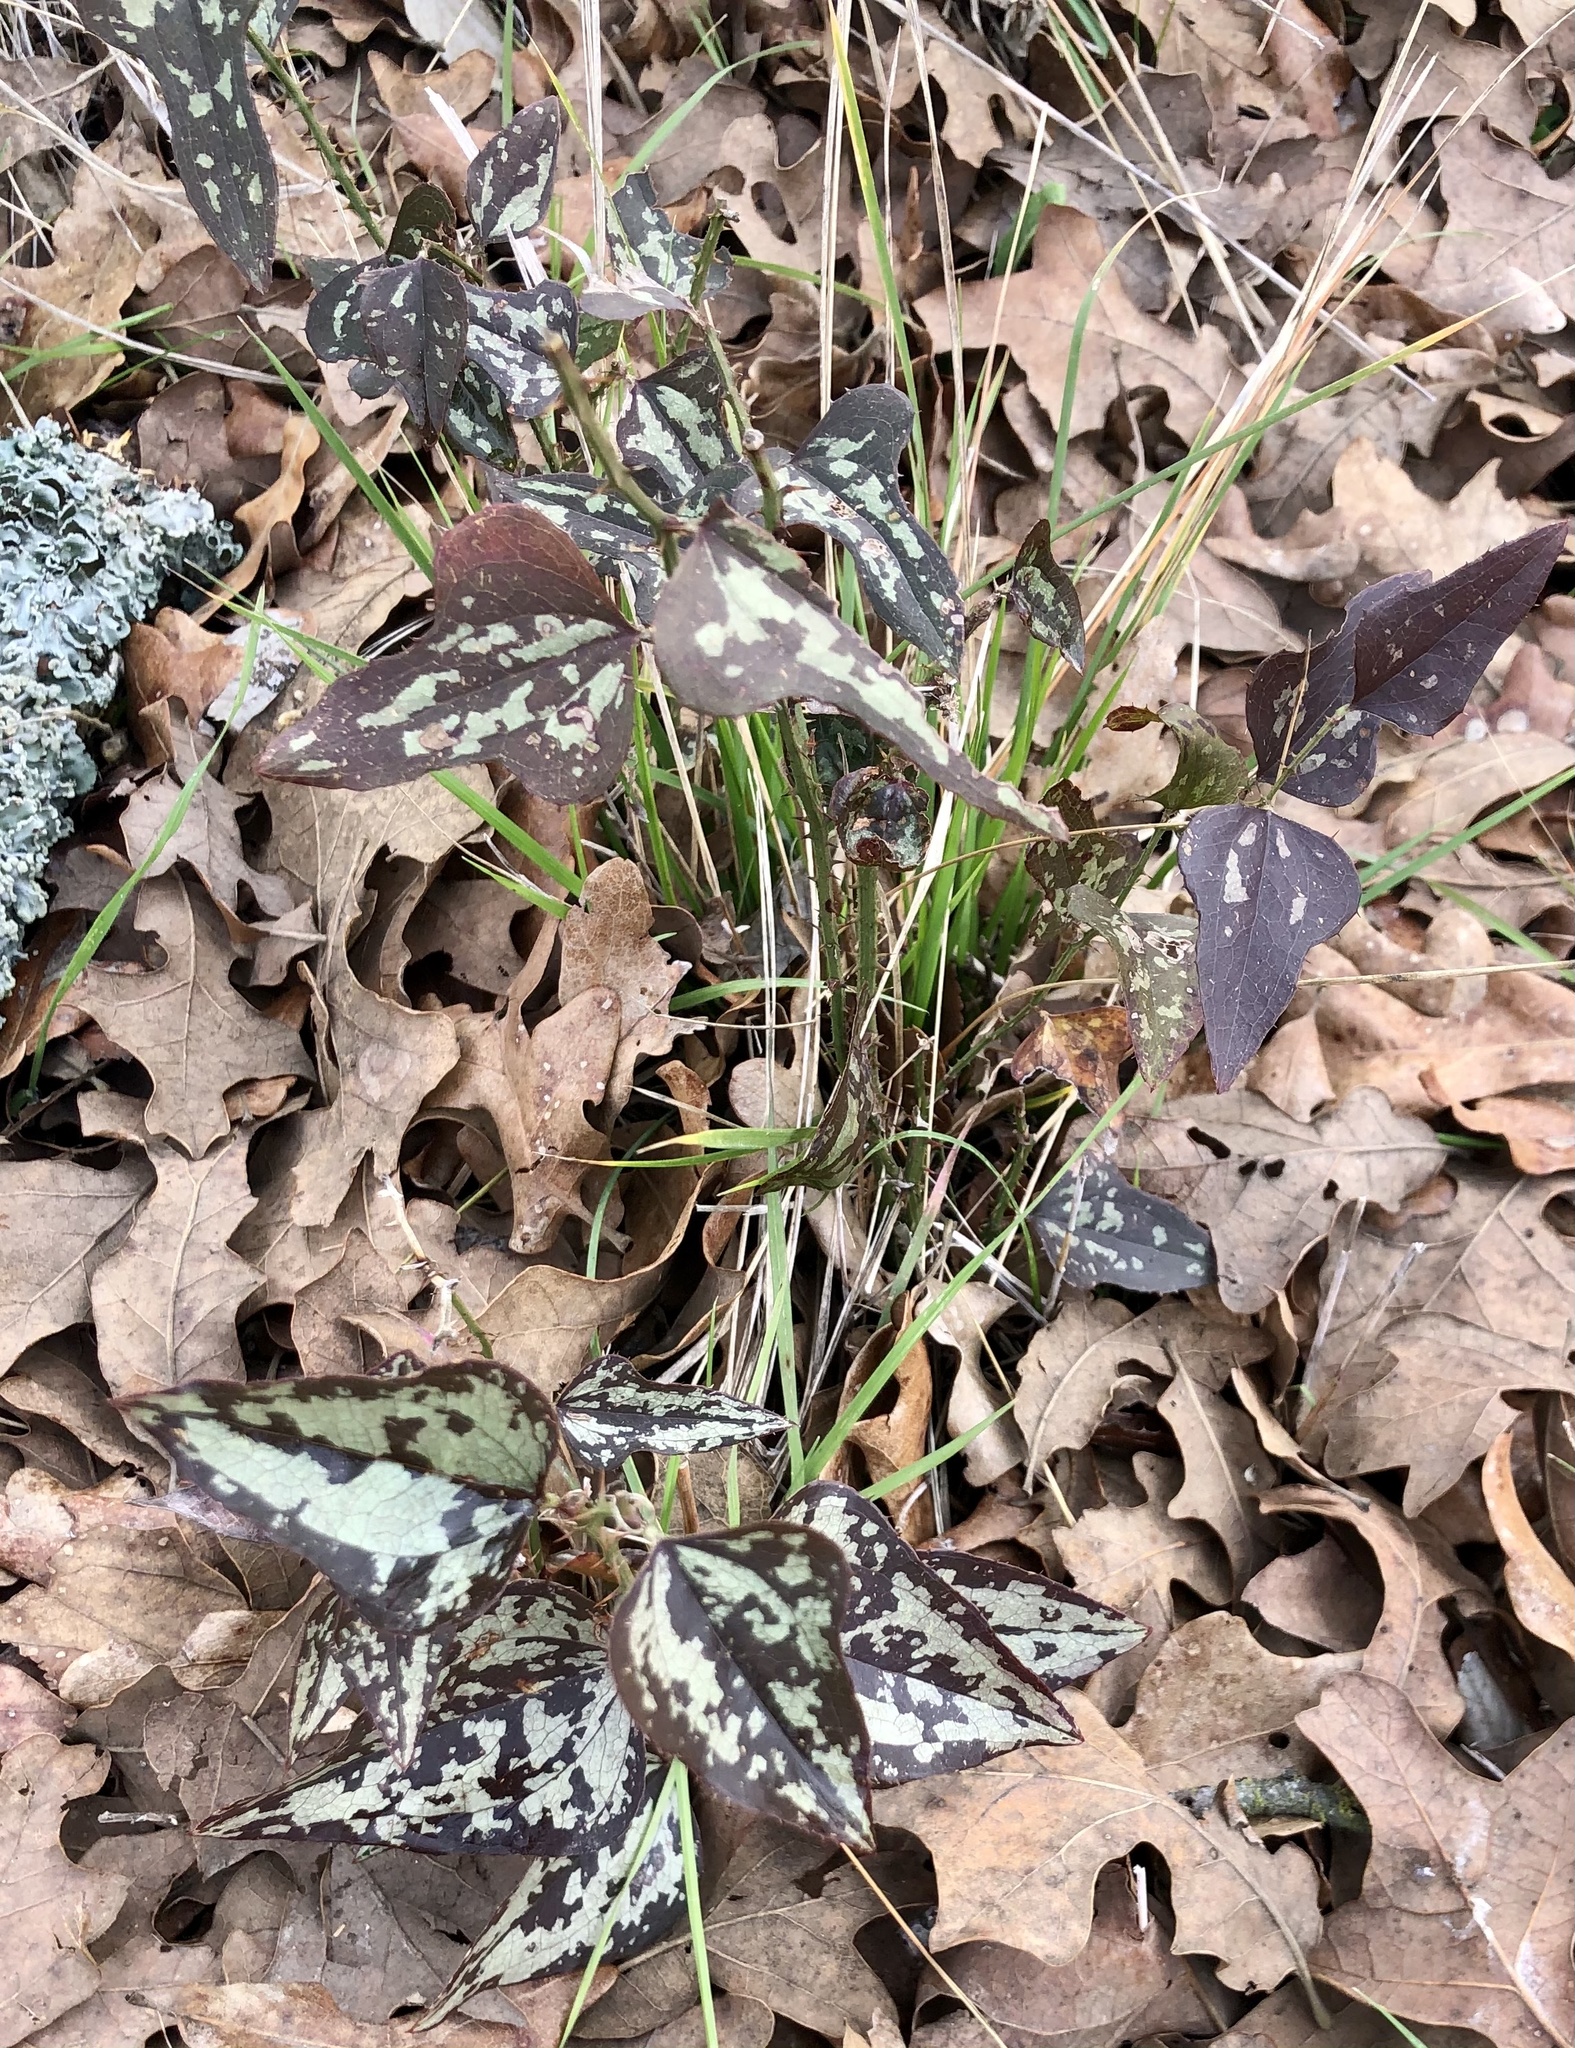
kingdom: Plantae
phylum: Tracheophyta
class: Liliopsida
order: Liliales
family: Smilacaceae
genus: Smilax
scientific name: Smilax bona-nox
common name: Catbrier
